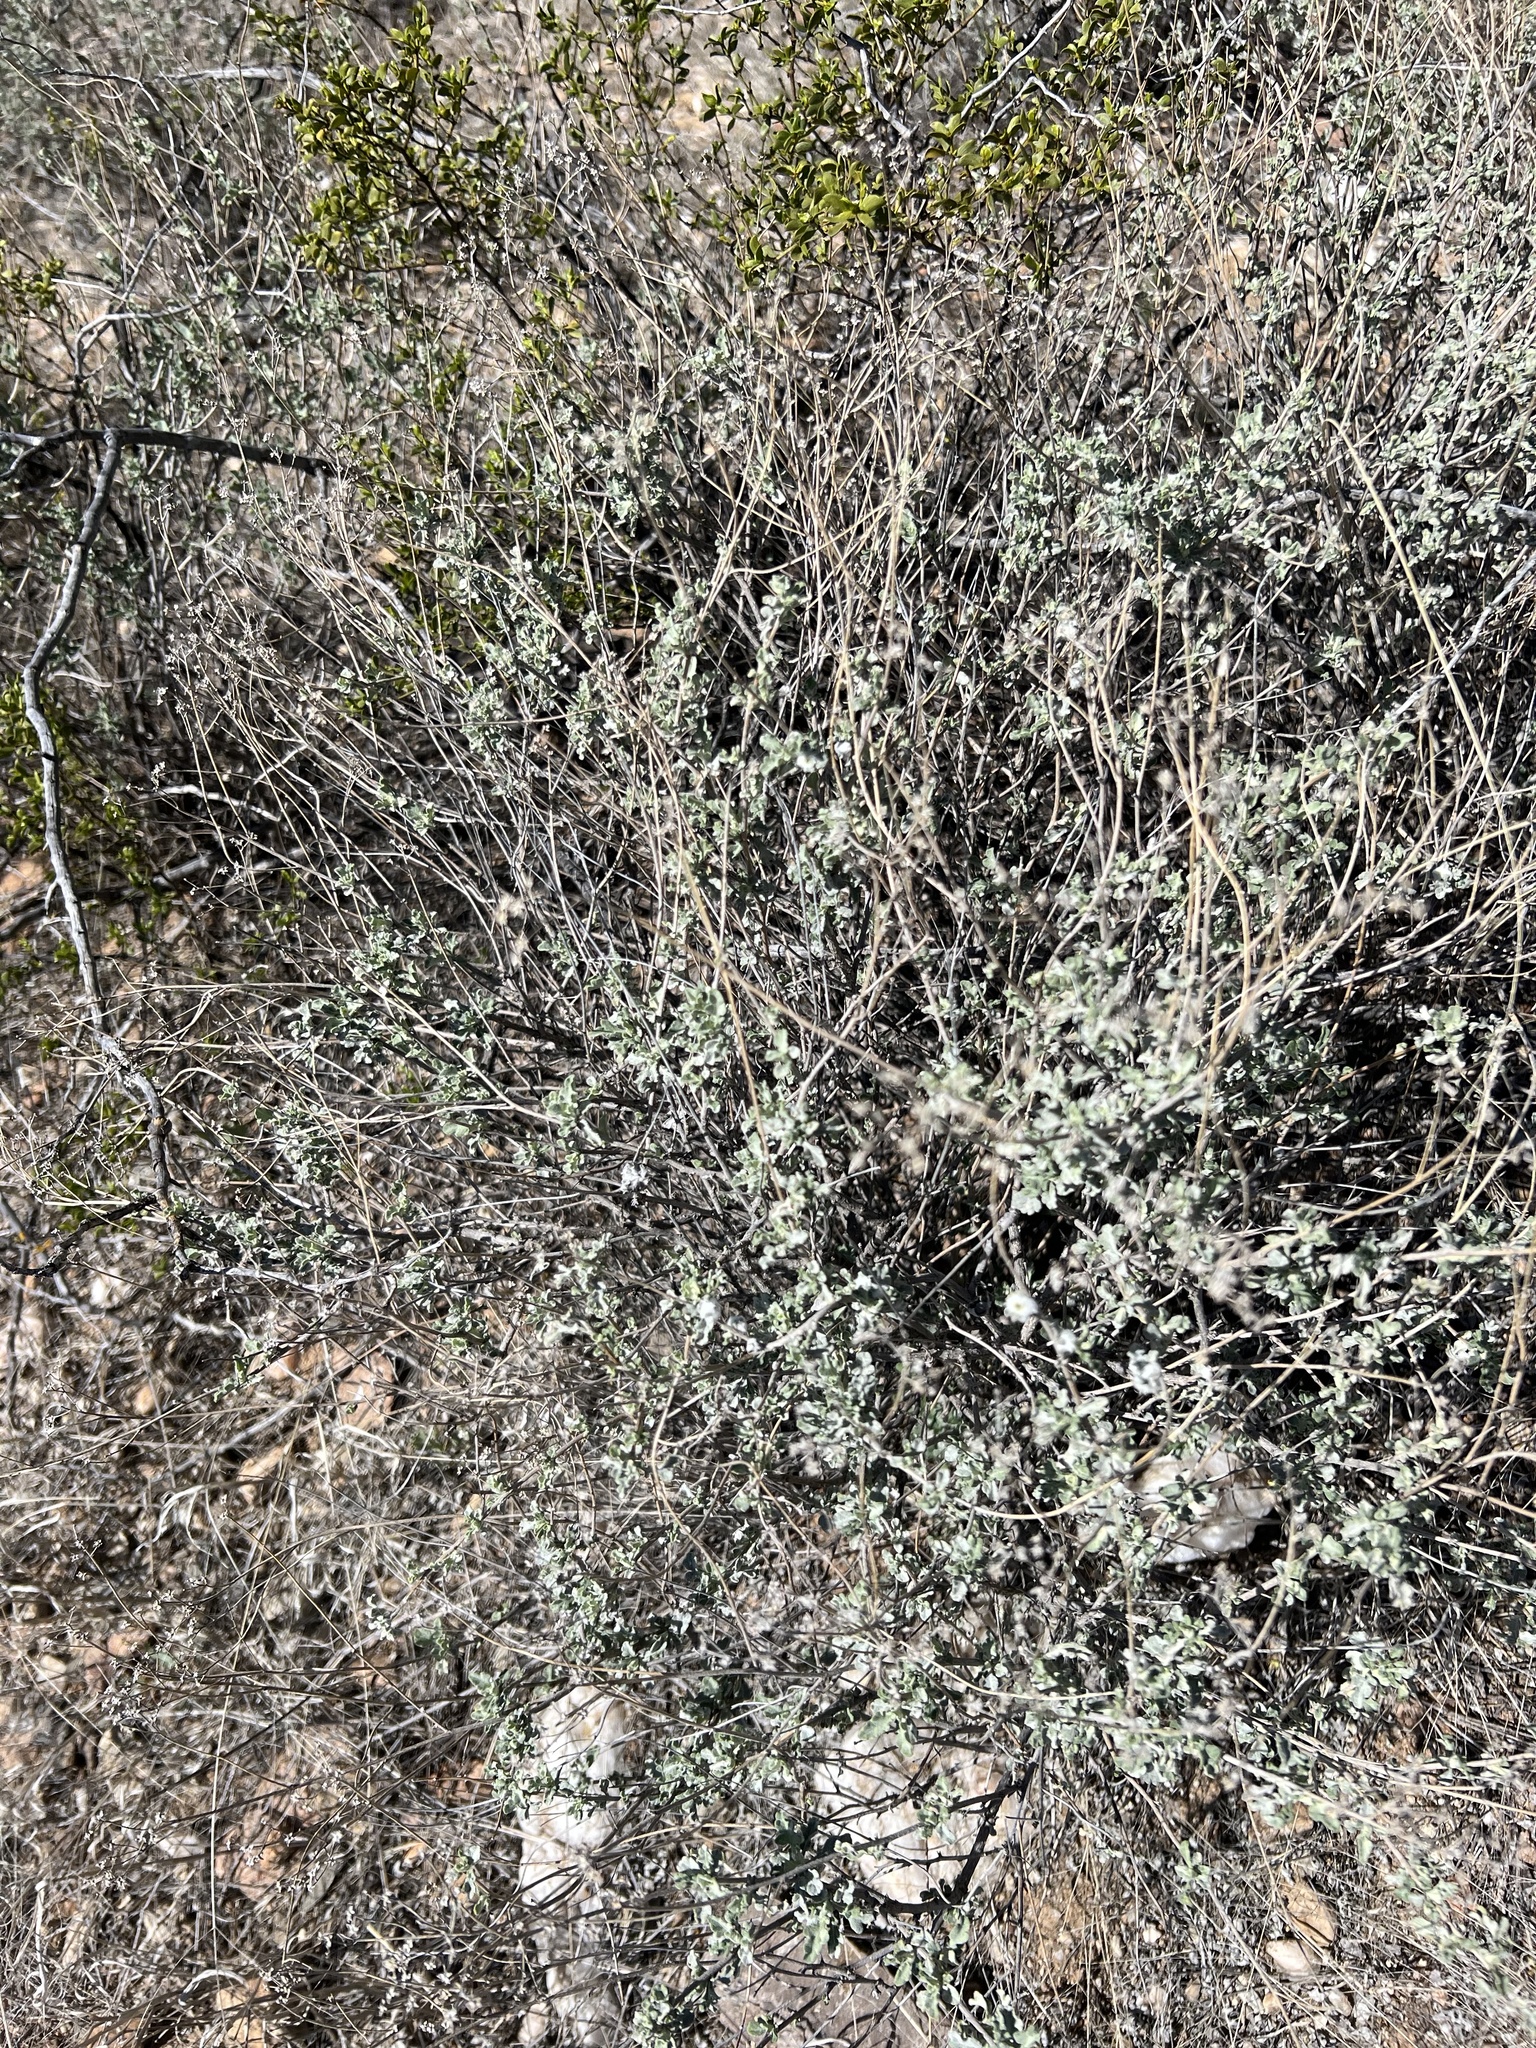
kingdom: Plantae
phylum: Tracheophyta
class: Magnoliopsida
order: Asterales
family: Asteraceae
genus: Parthenium
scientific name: Parthenium incanum
